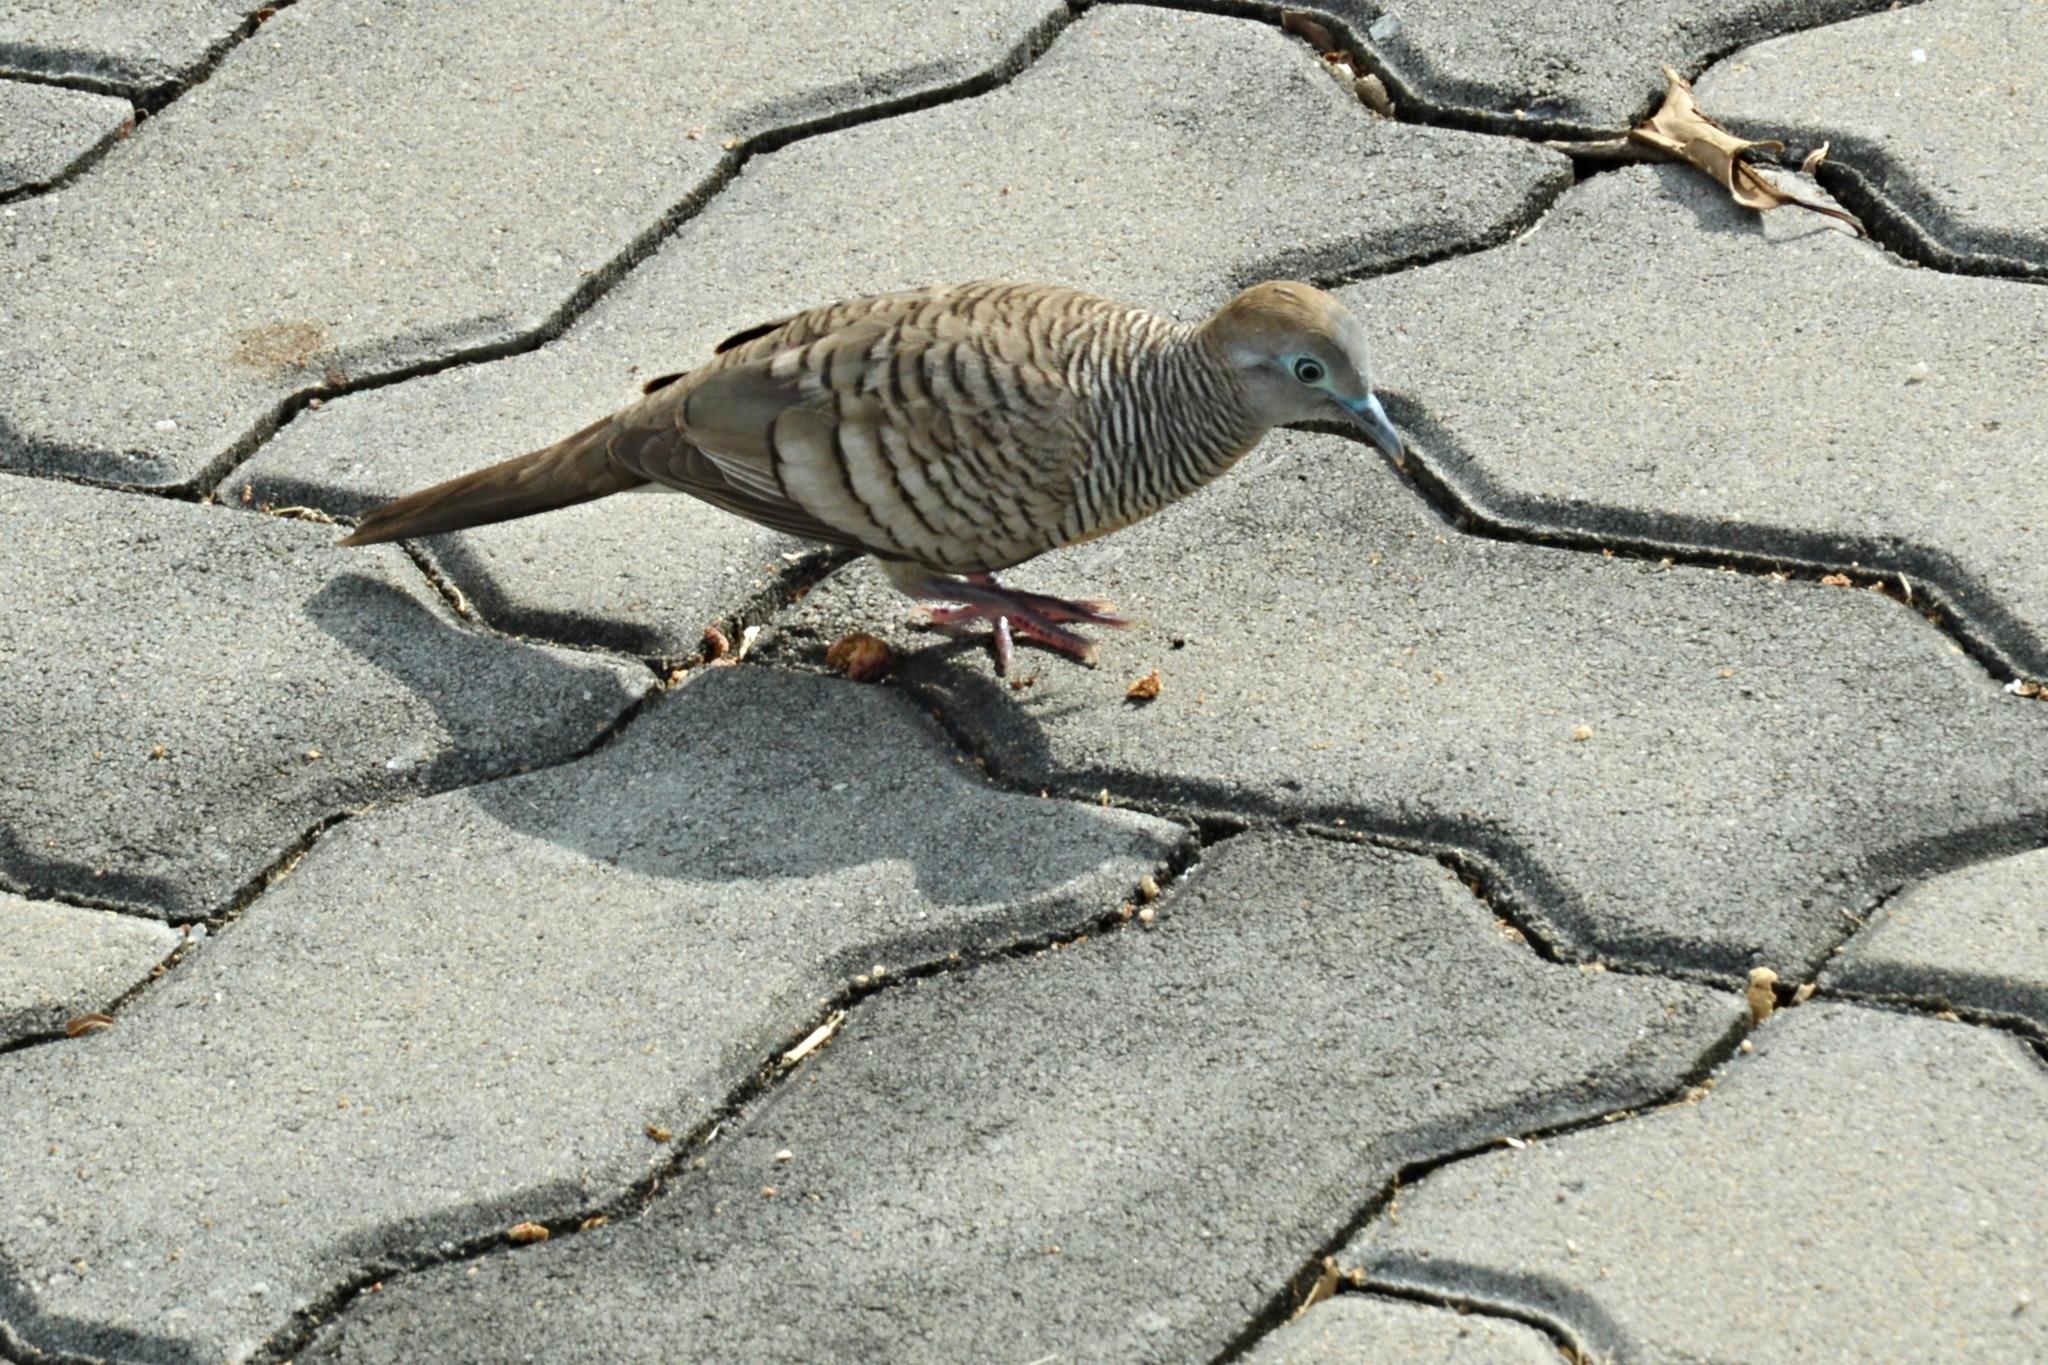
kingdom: Animalia
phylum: Chordata
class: Aves
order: Columbiformes
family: Columbidae
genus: Geopelia
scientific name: Geopelia striata
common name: Zebra dove
